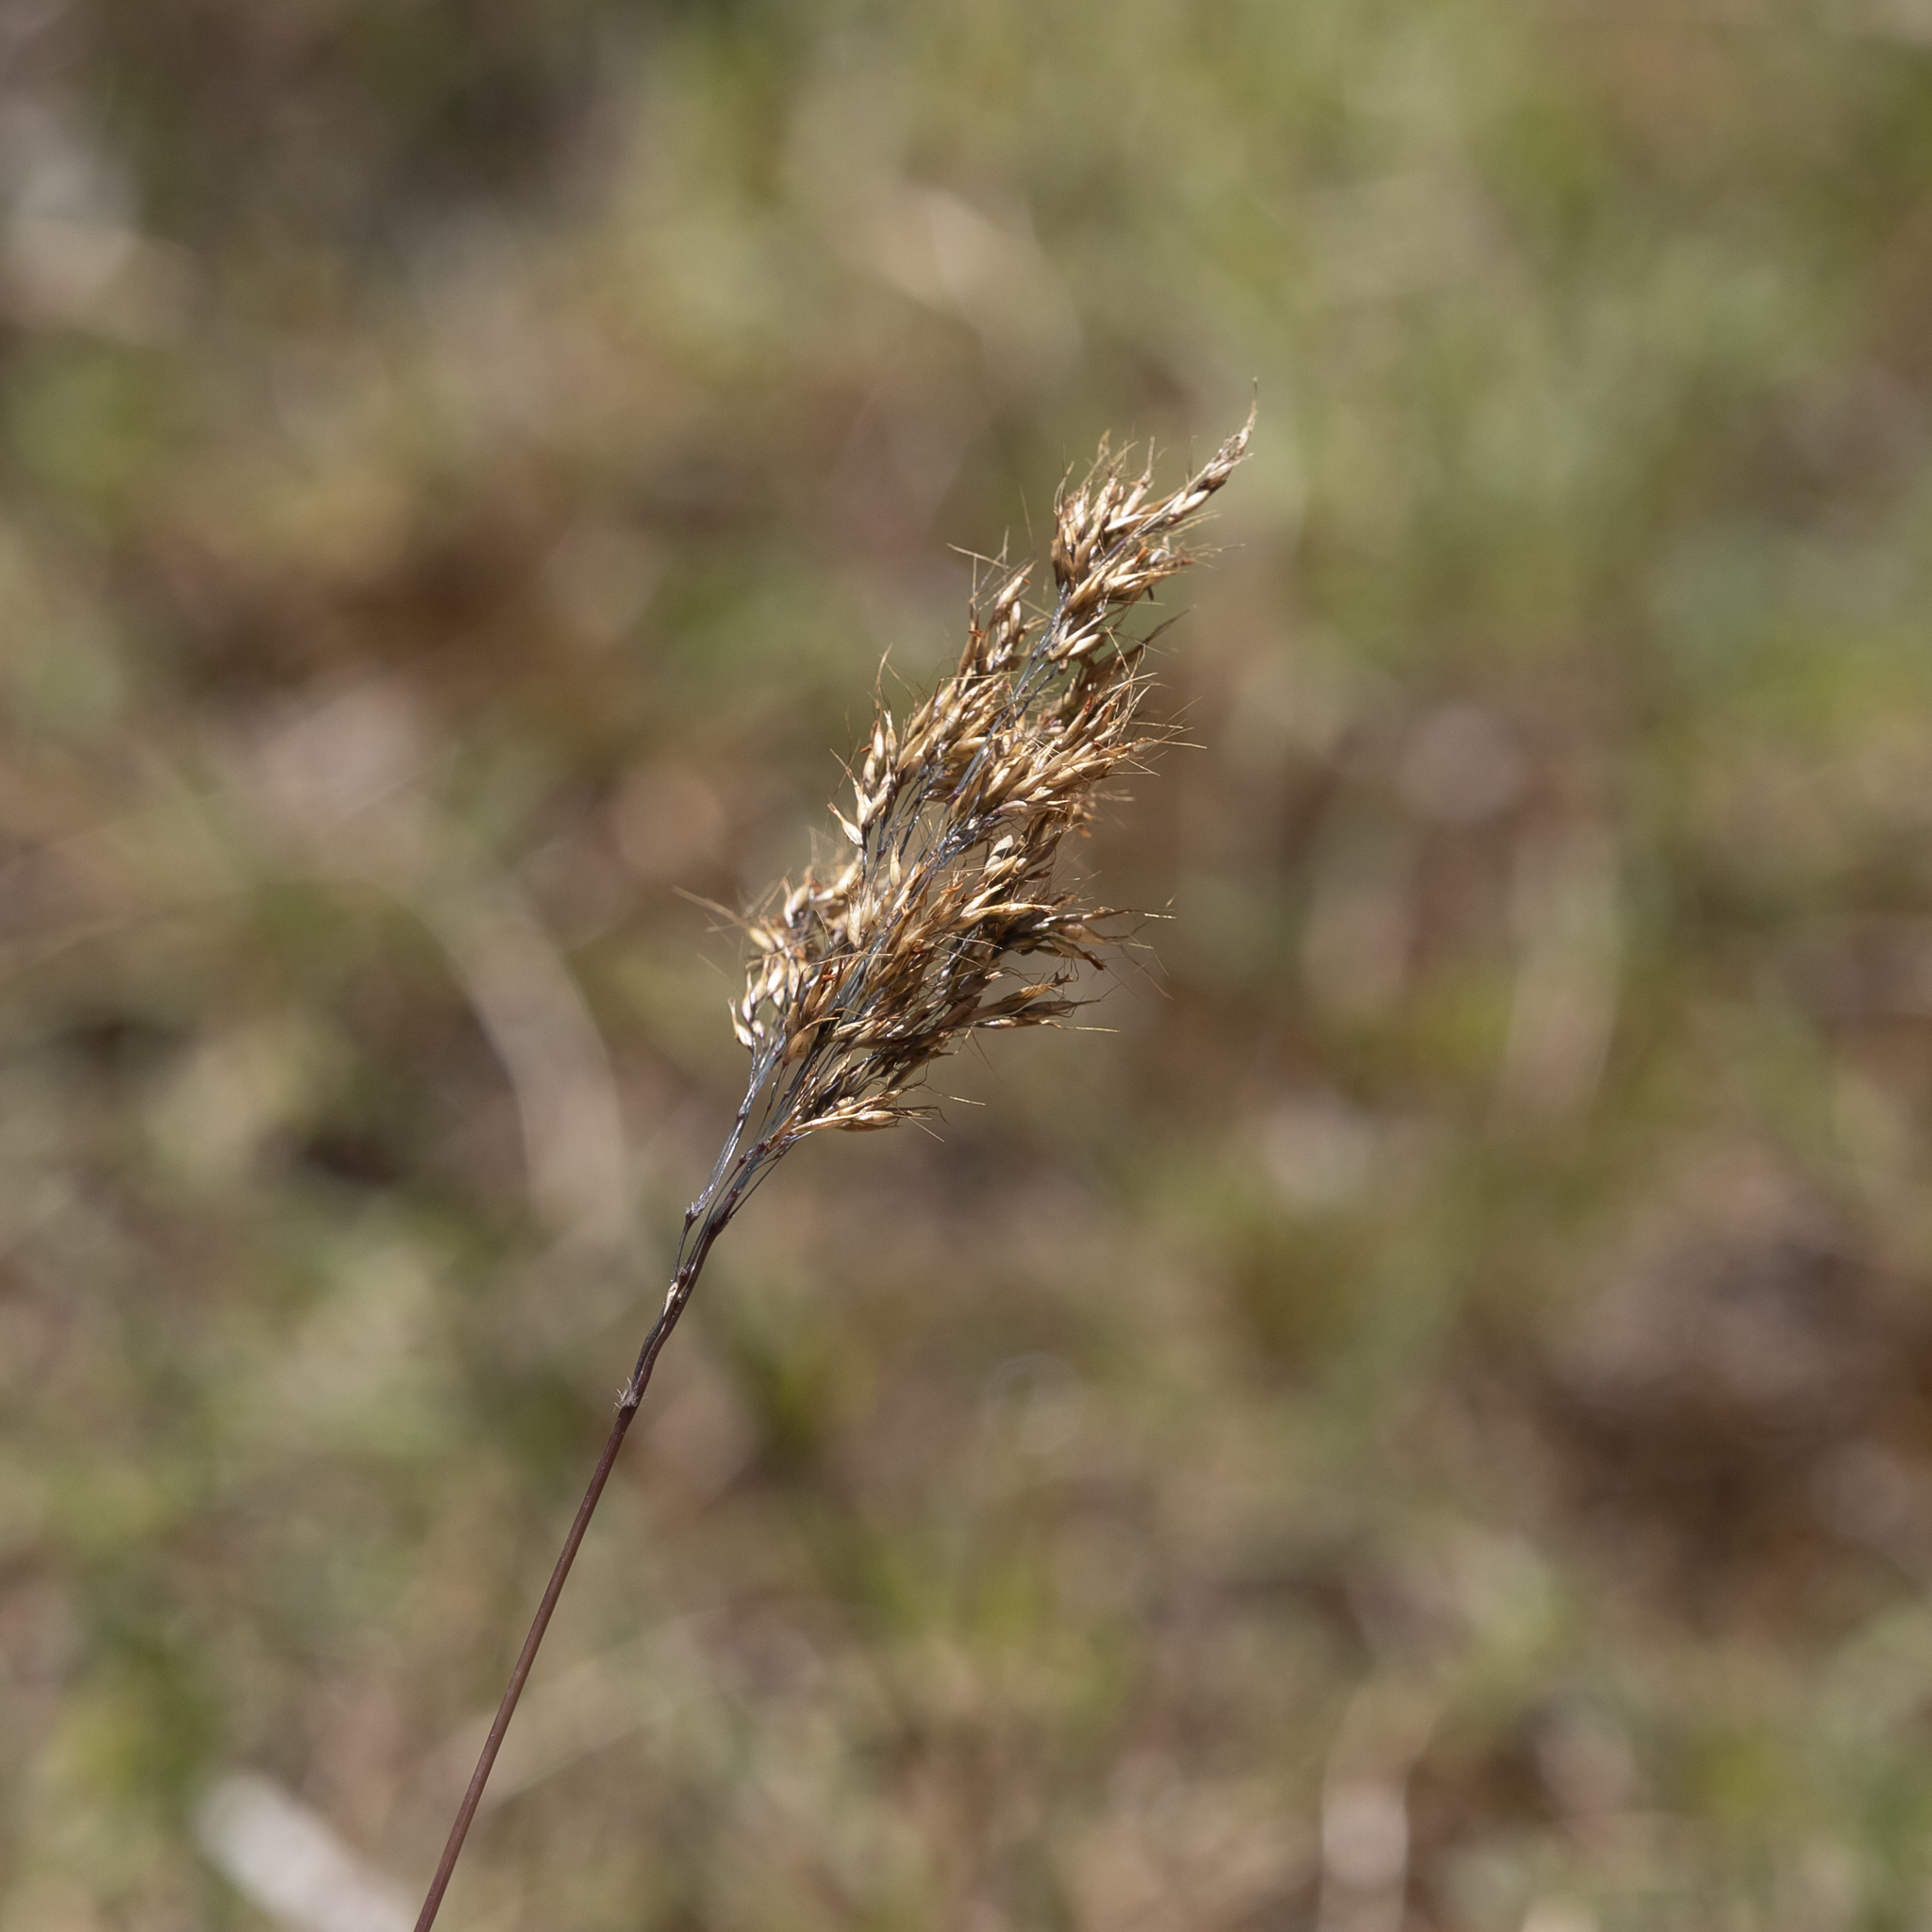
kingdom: Plantae
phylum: Tracheophyta
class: Liliopsida
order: Poales
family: Poaceae
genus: Pentameris
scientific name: Pentameris pallida
